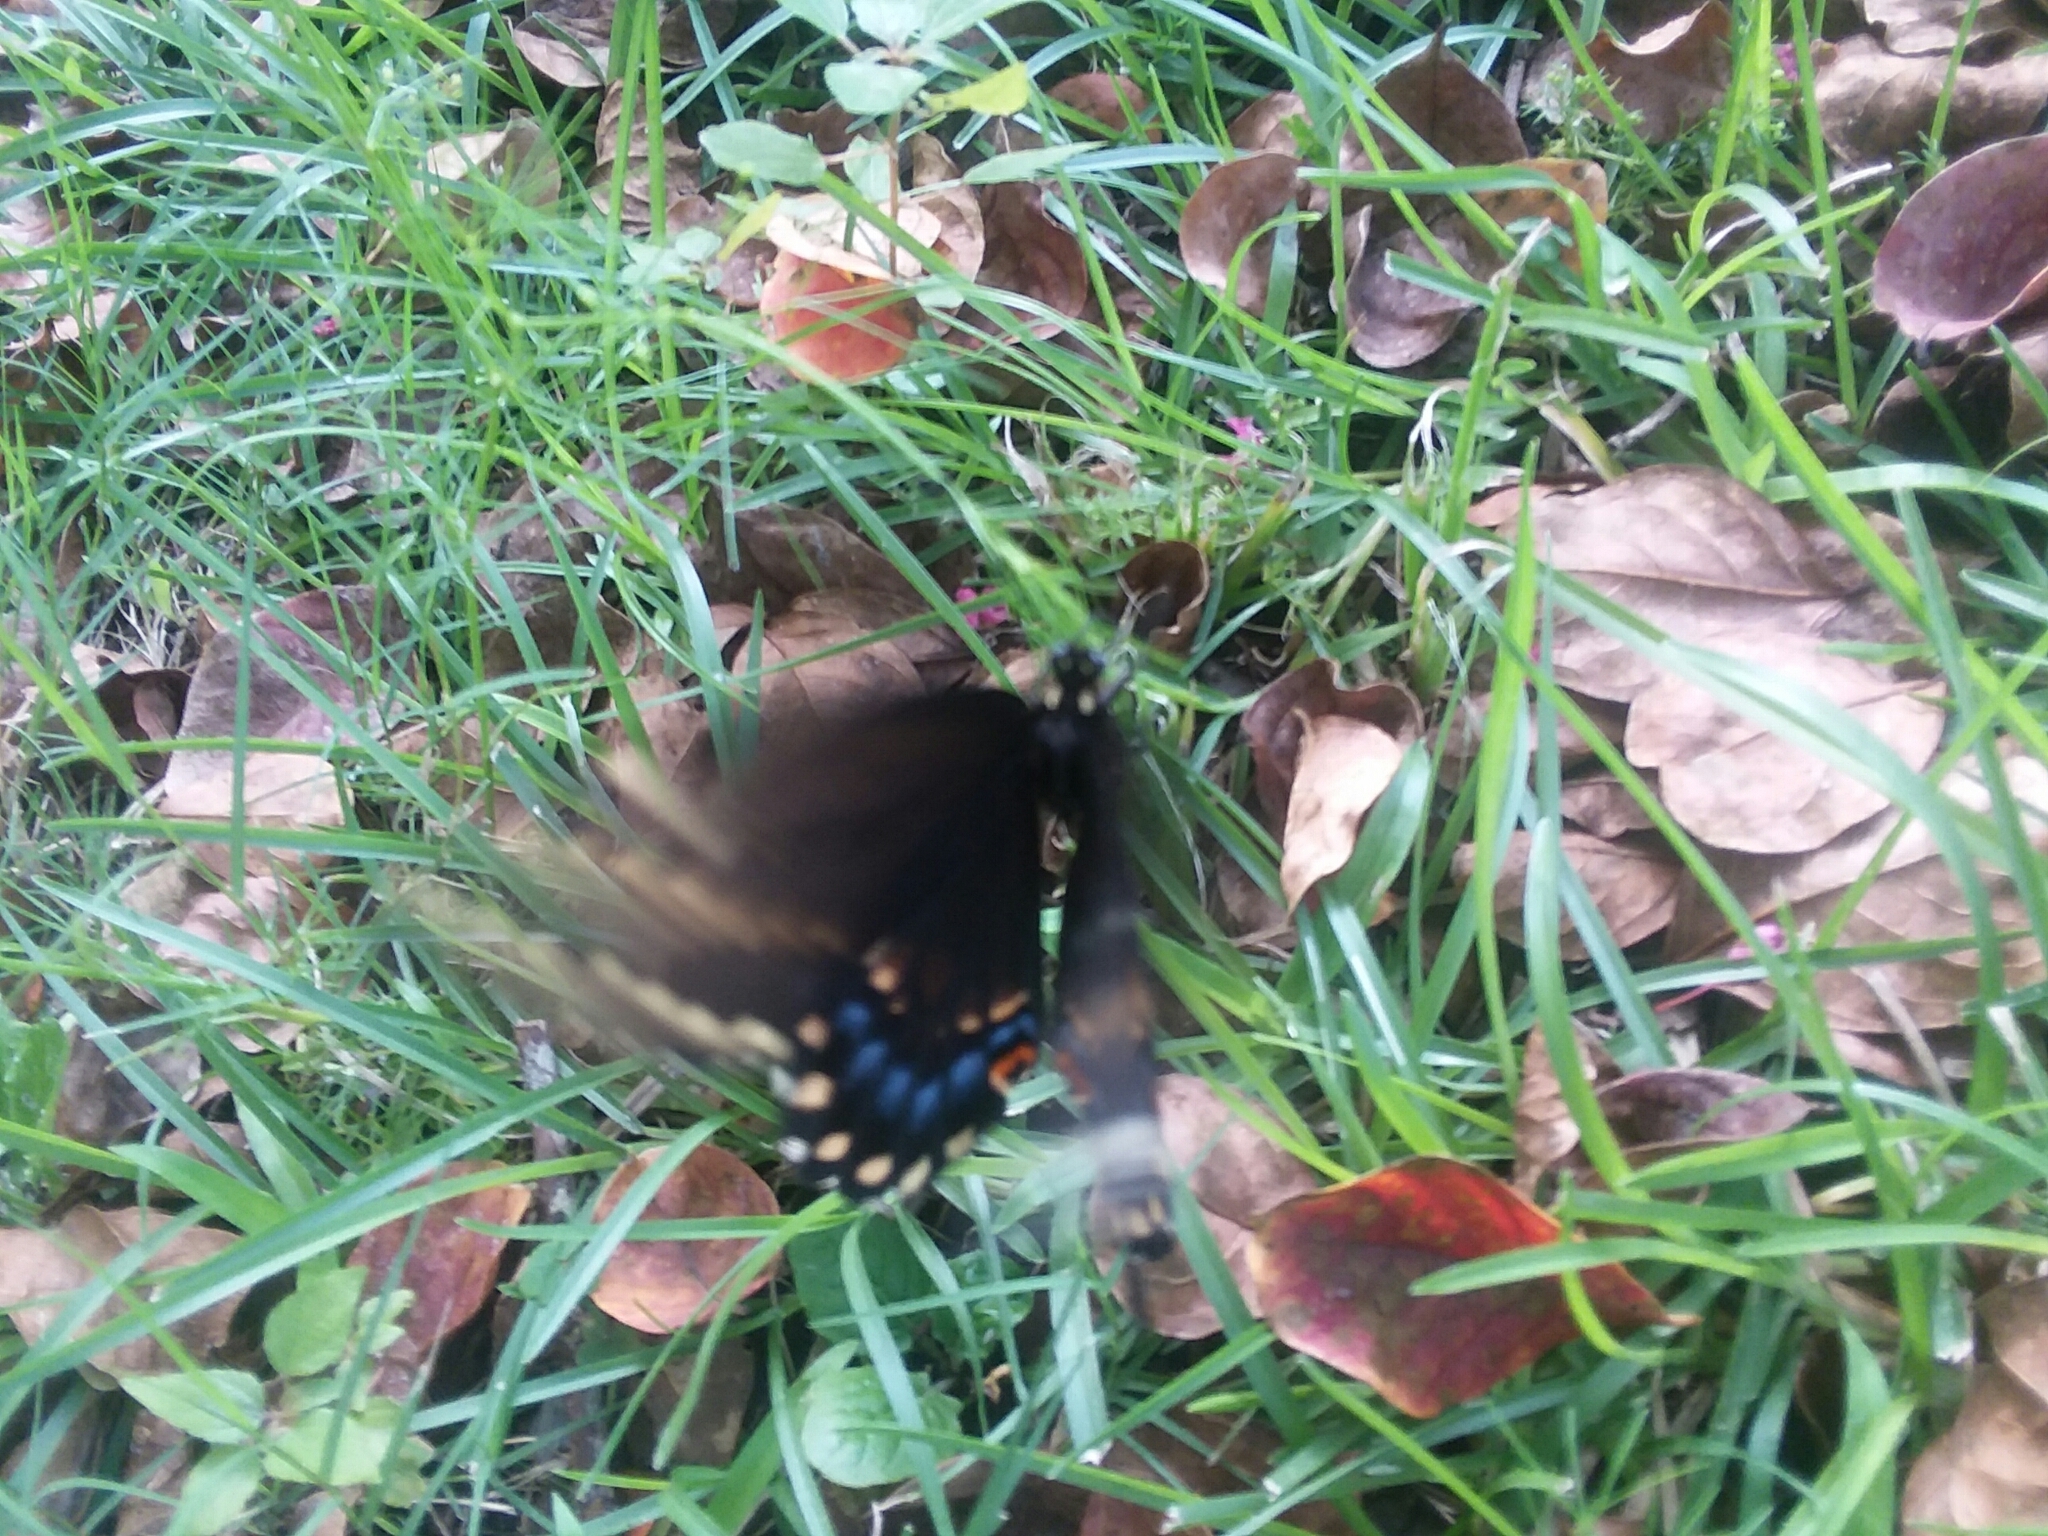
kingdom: Animalia
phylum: Arthropoda
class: Insecta
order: Lepidoptera
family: Papilionidae
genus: Papilio
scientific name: Papilio polyxenes
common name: Black swallowtail
